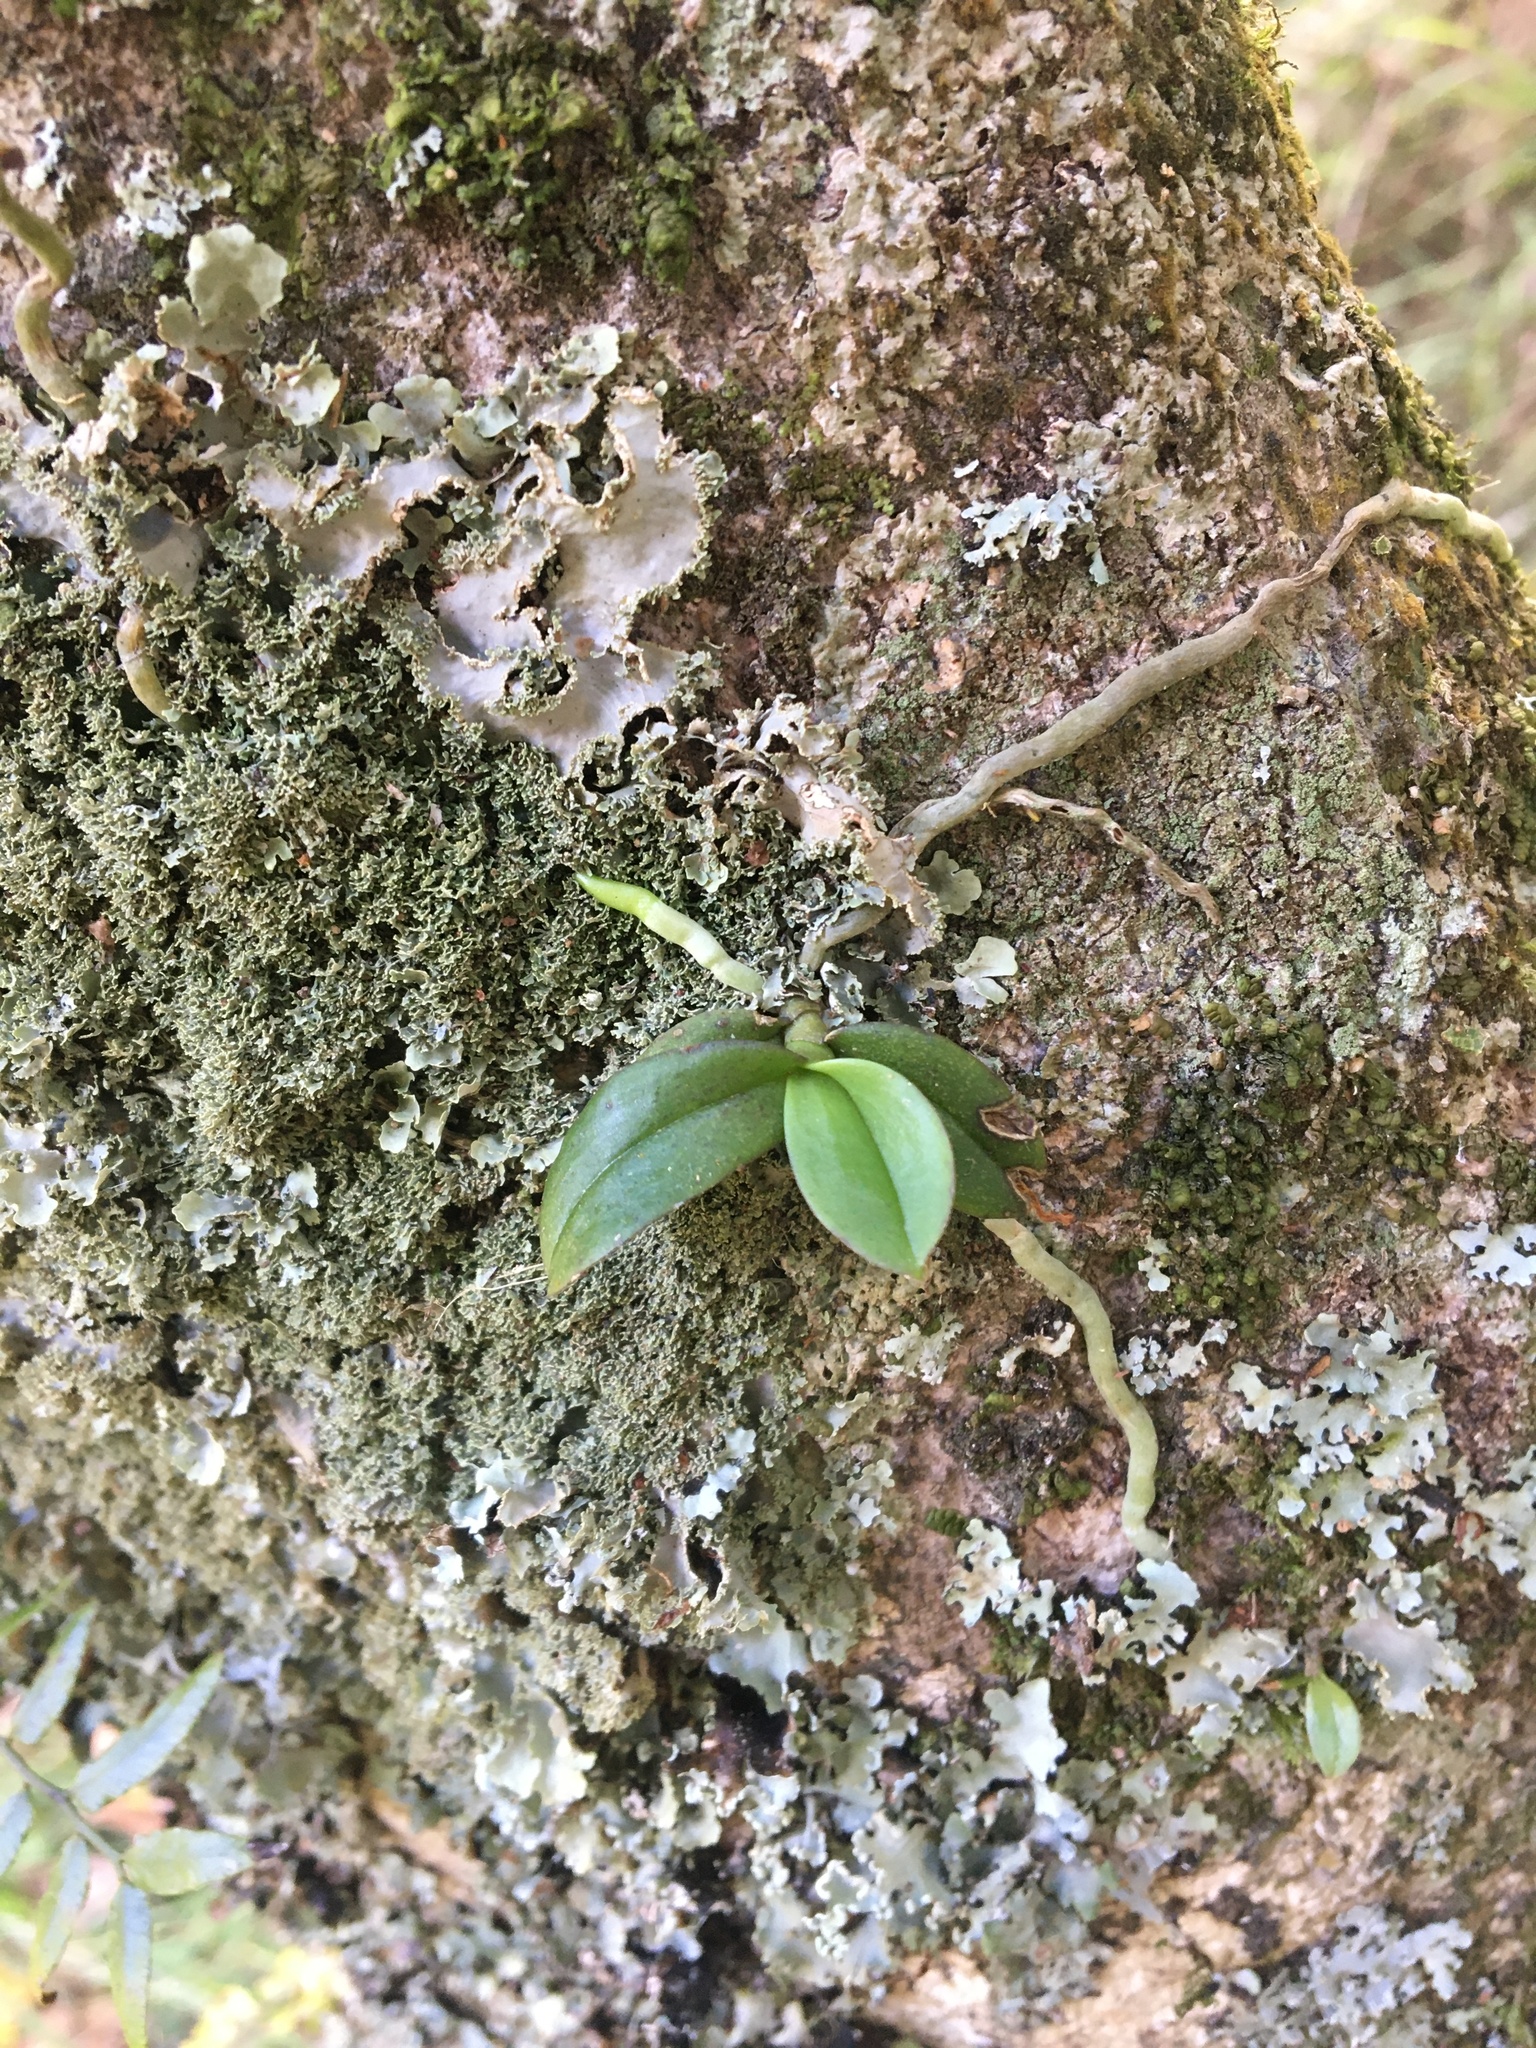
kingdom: Plantae
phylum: Tracheophyta
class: Liliopsida
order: Asparagales
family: Orchidaceae
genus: Drymoanthus
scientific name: Drymoanthus adversus
